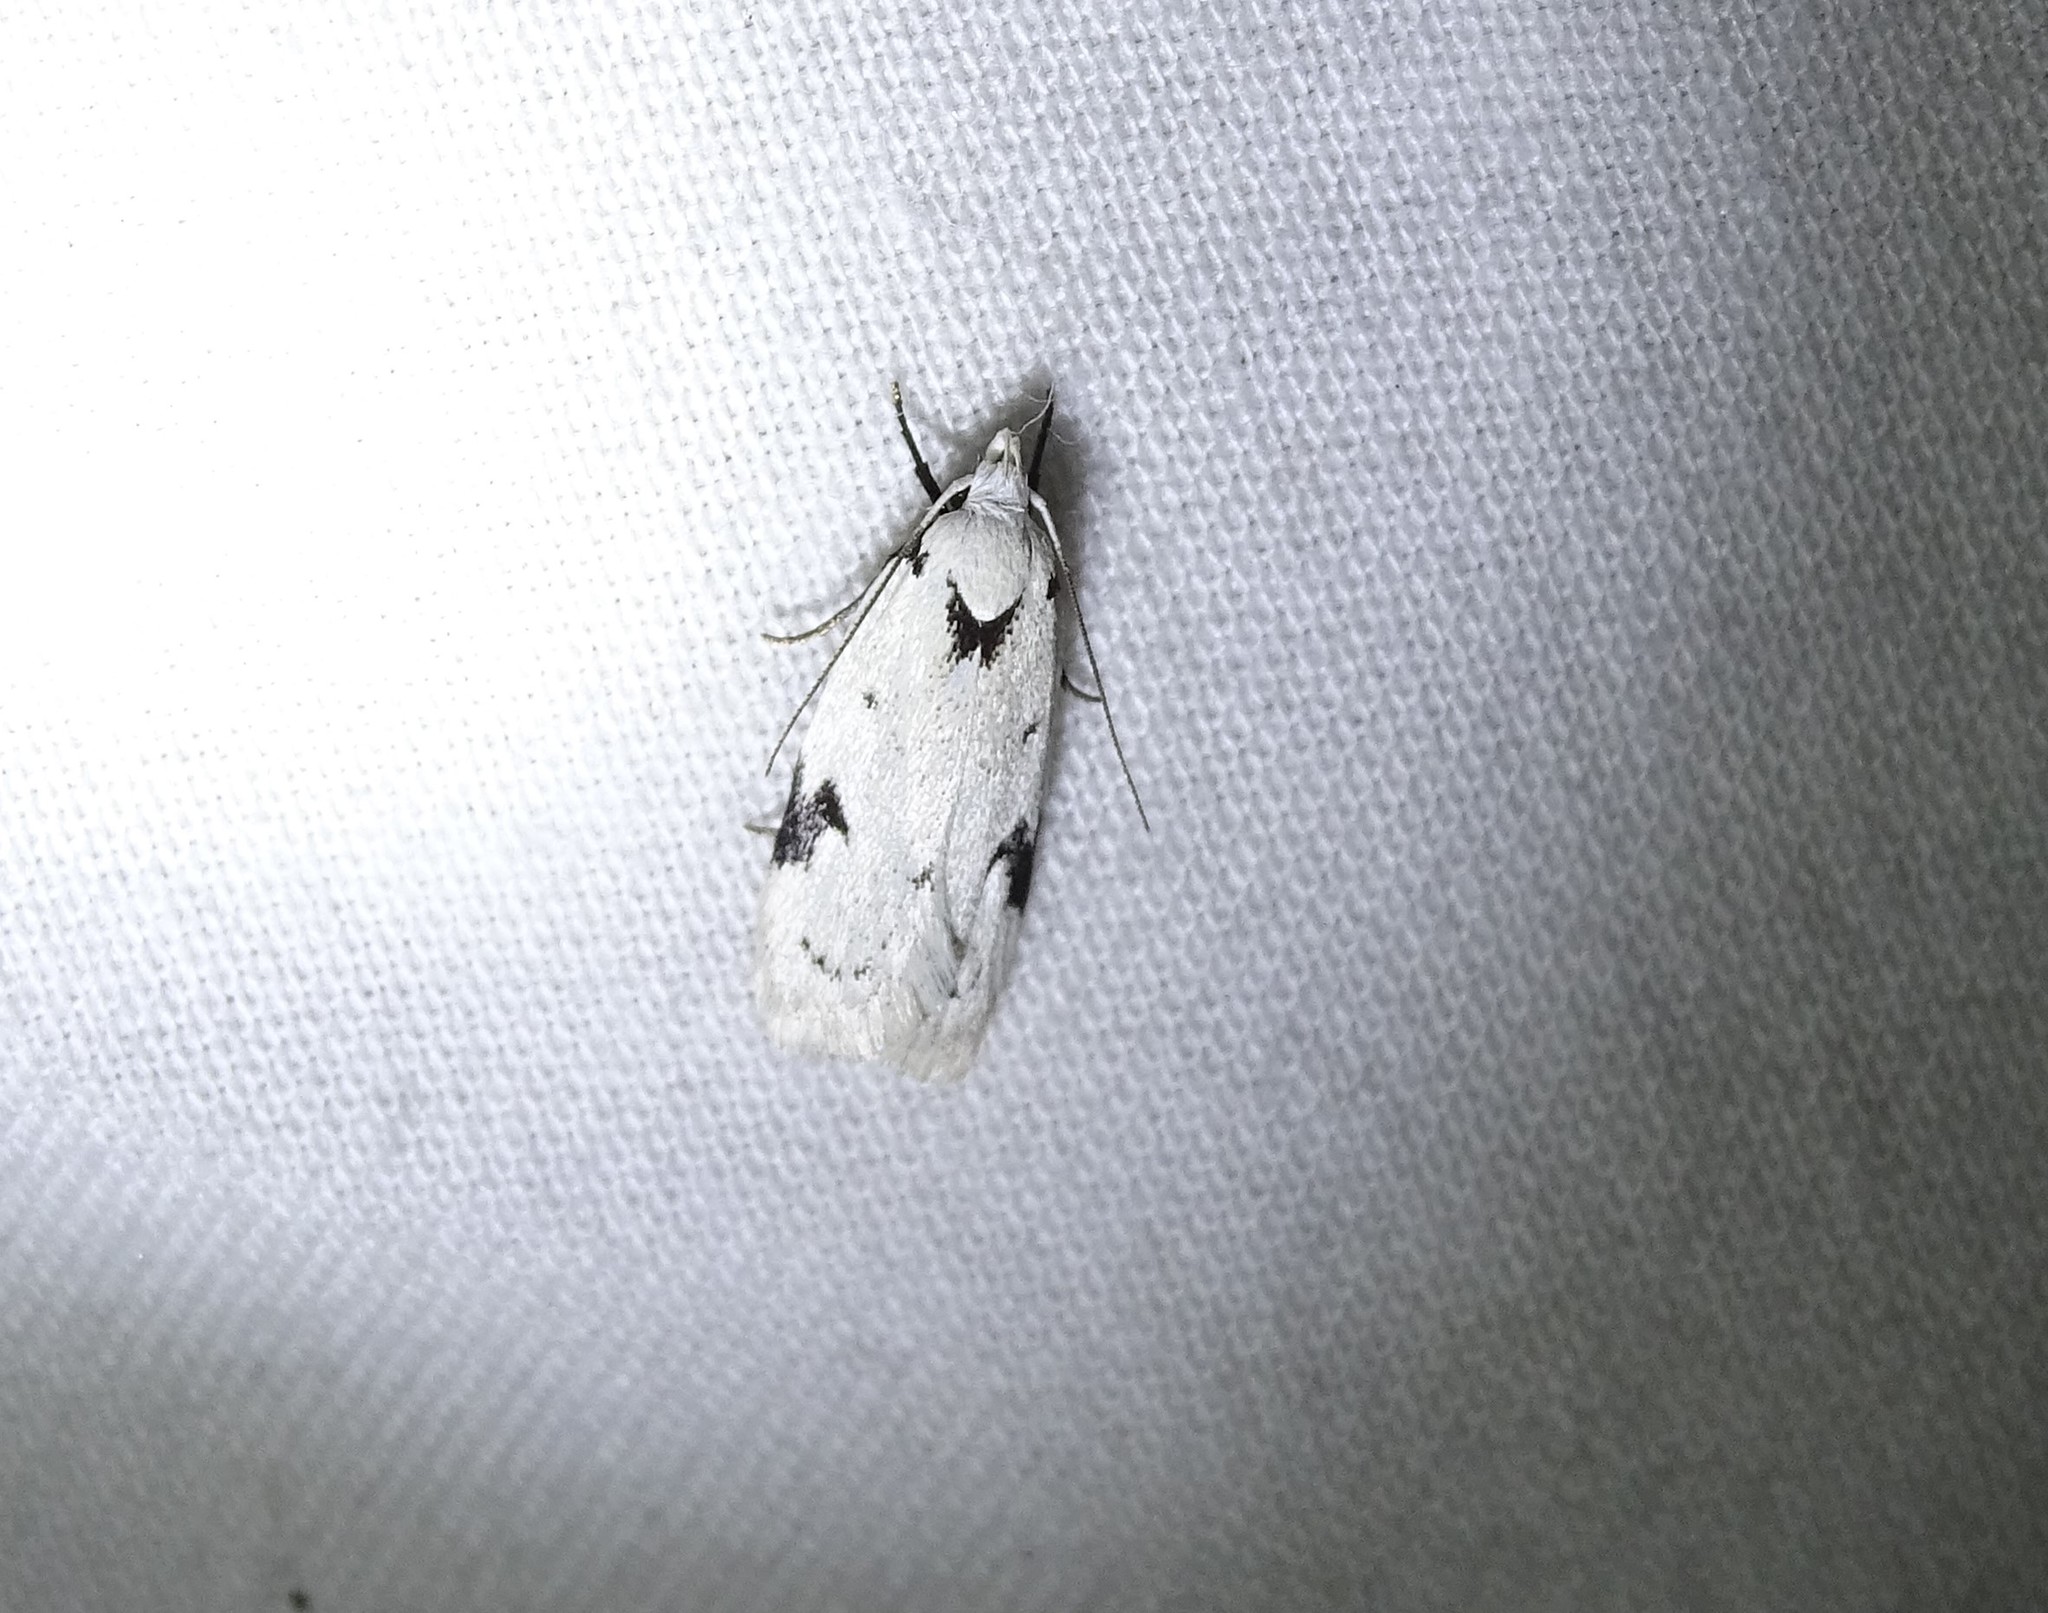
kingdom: Animalia
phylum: Arthropoda
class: Insecta
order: Lepidoptera
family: Oecophoridae
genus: Inga
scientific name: Inga sparsiciliella
